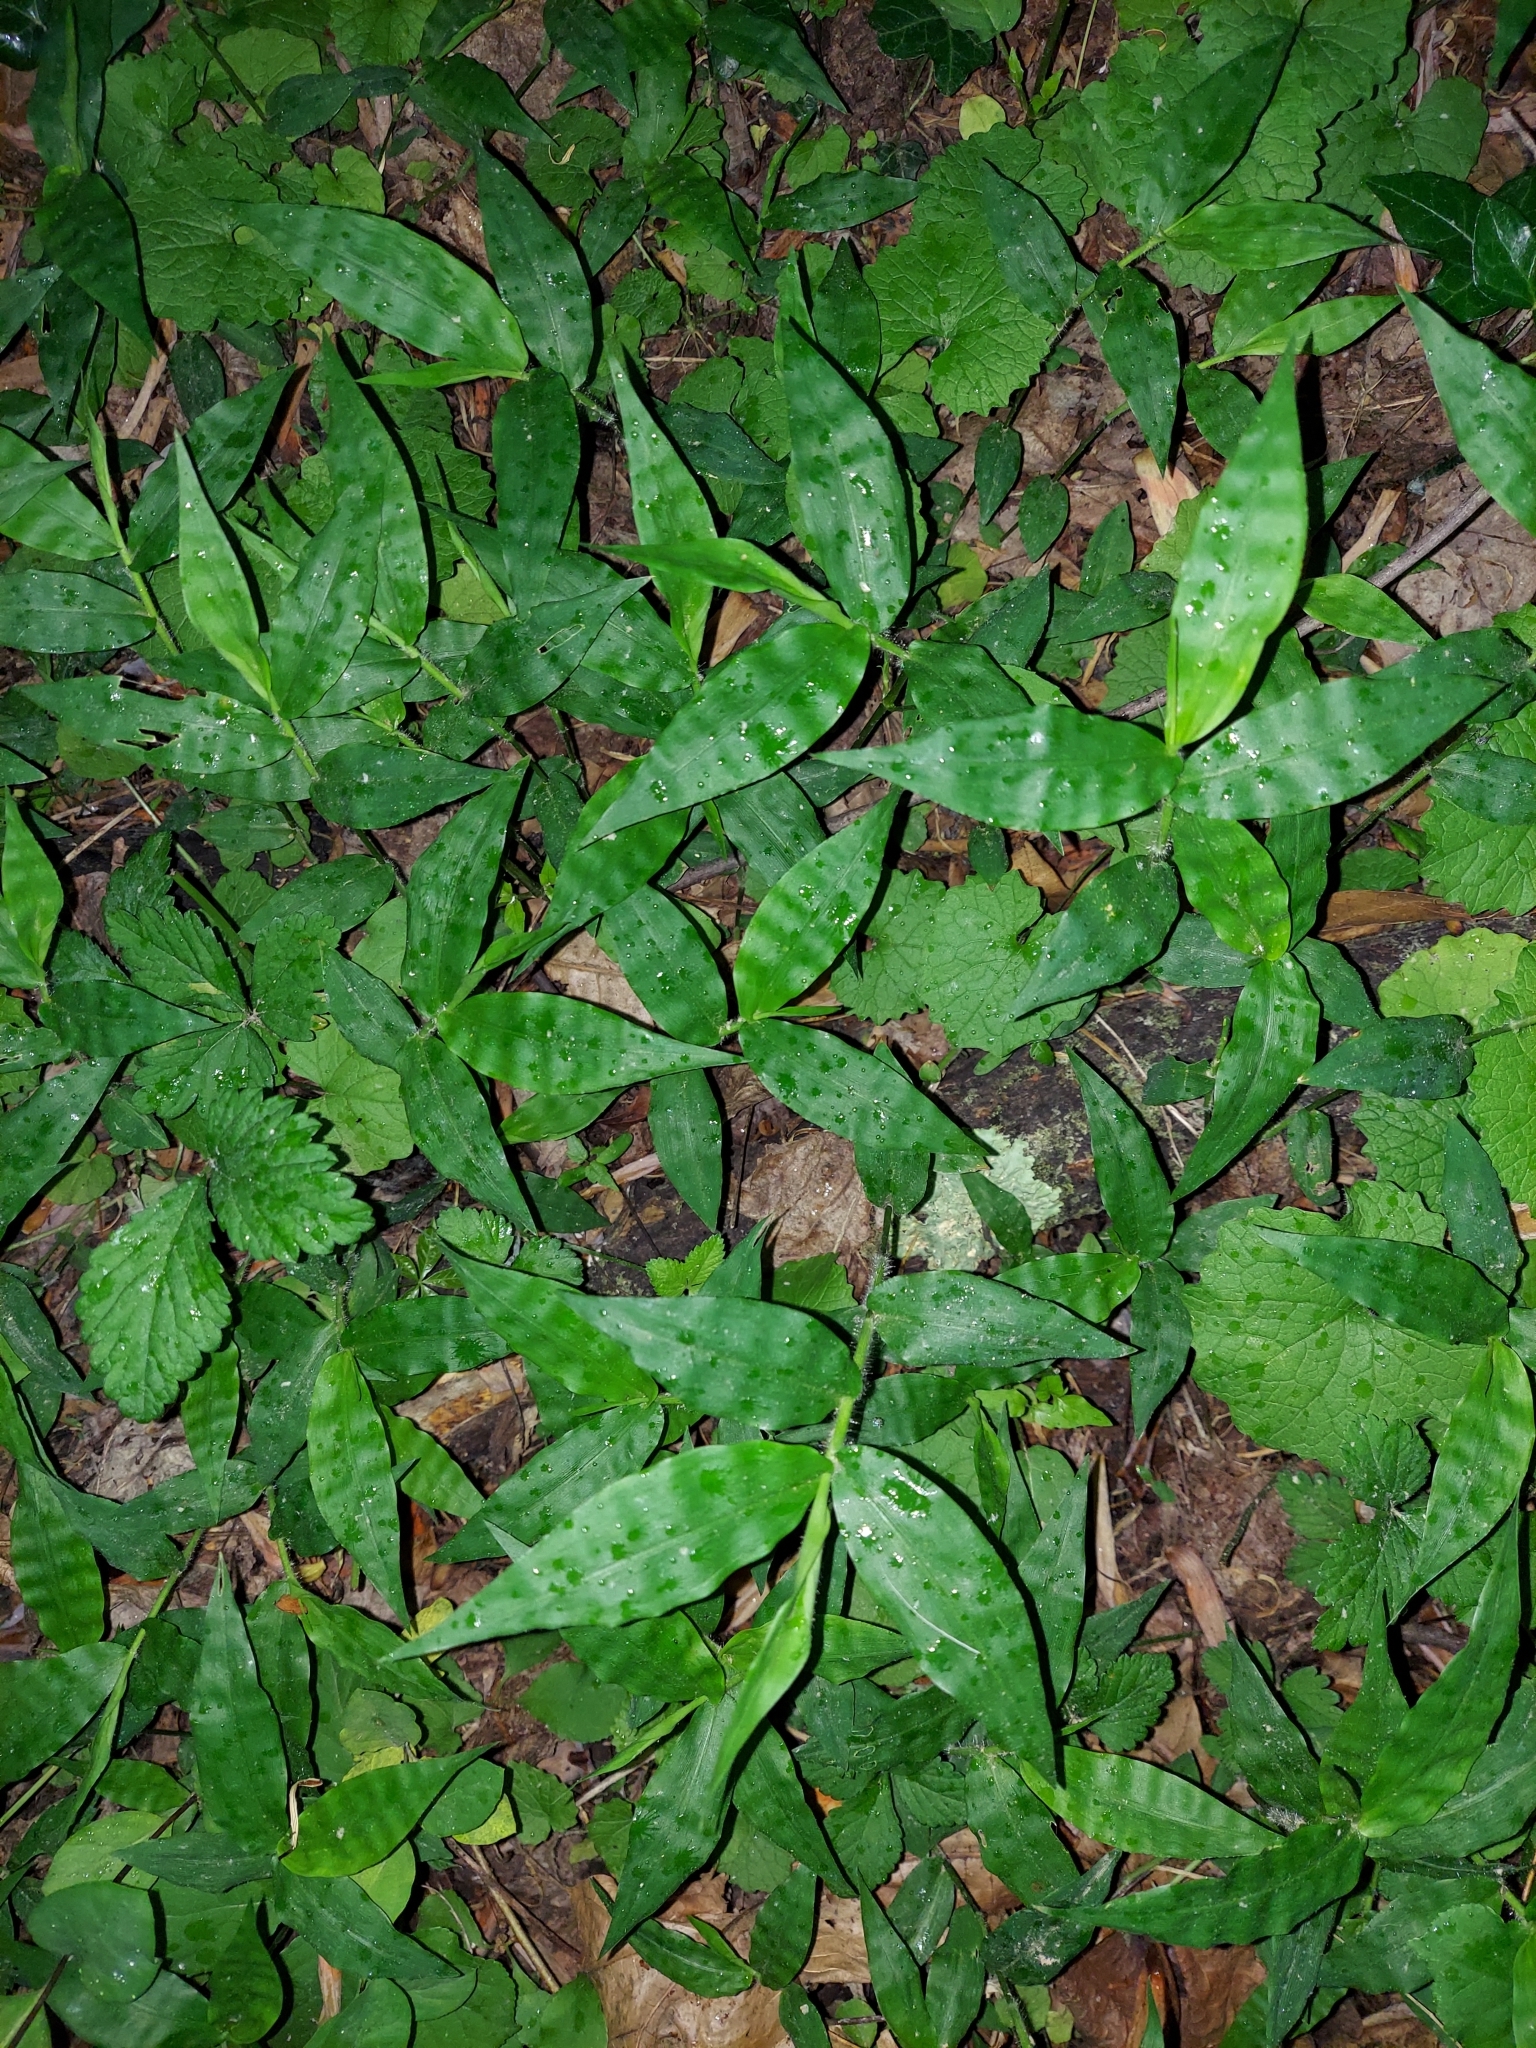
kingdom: Plantae
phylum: Tracheophyta
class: Liliopsida
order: Poales
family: Poaceae
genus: Oplismenus
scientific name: Oplismenus undulatifolius
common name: Wavyleaf basketgrass
